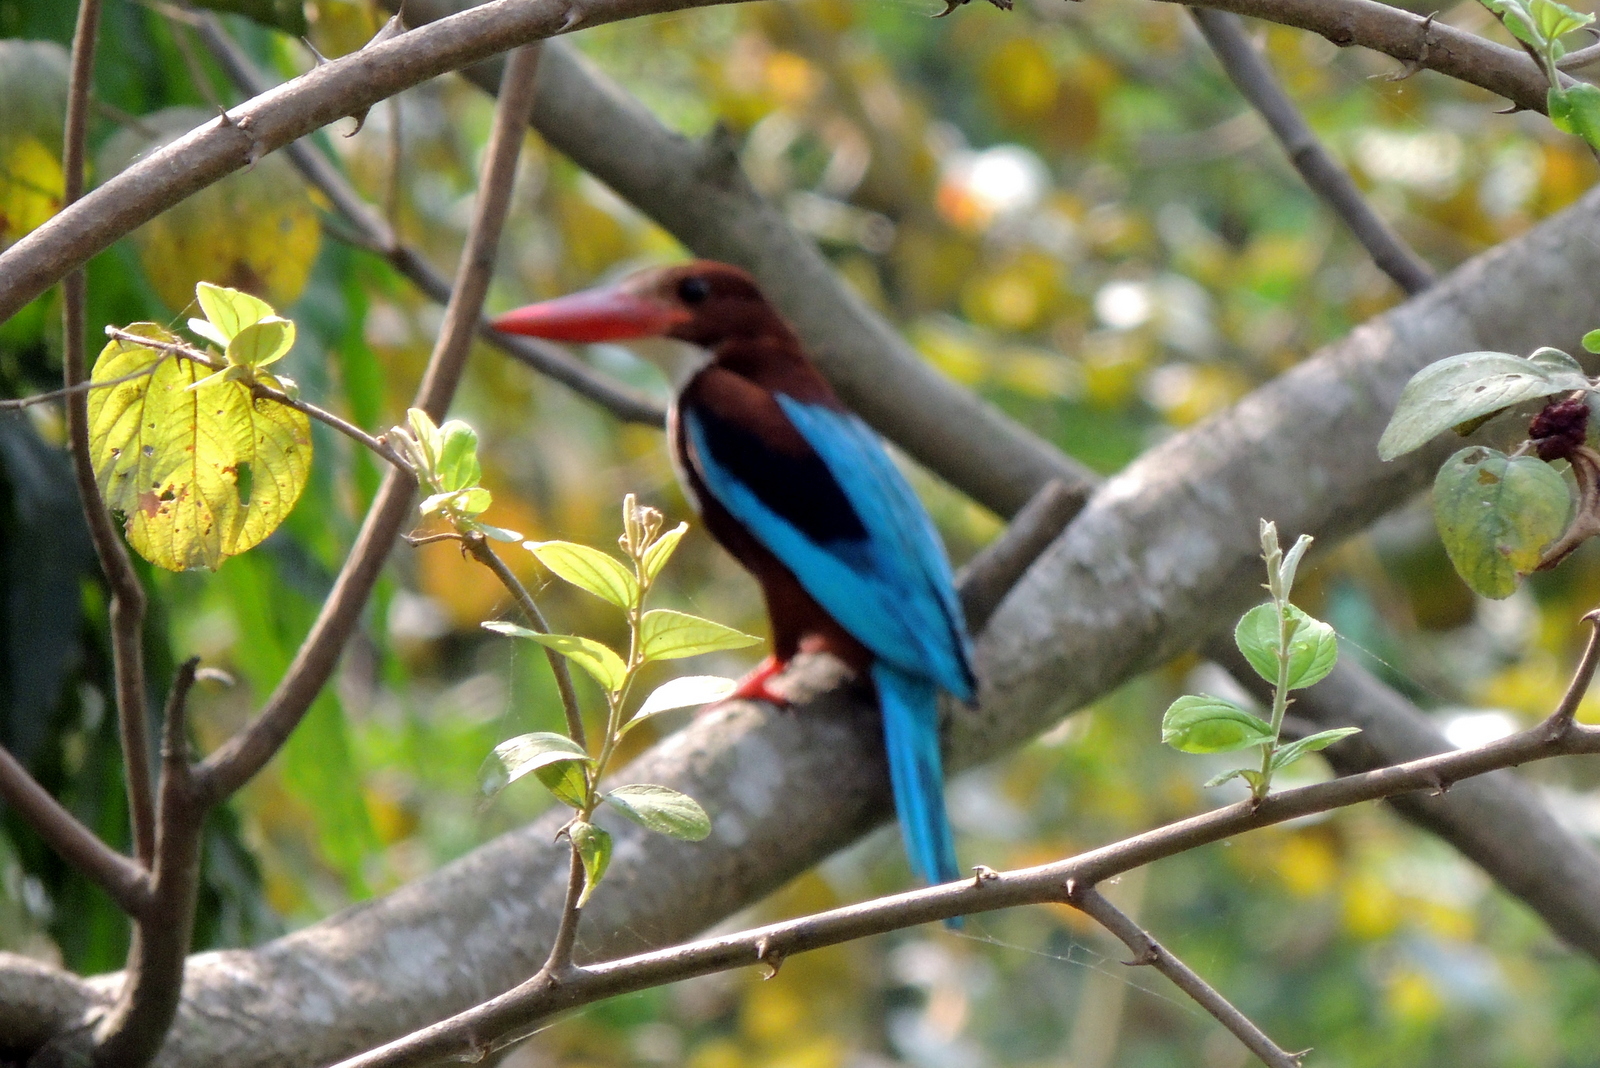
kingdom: Animalia
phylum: Chordata
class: Aves
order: Coraciiformes
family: Alcedinidae
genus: Halcyon
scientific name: Halcyon smyrnensis
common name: White-throated kingfisher
